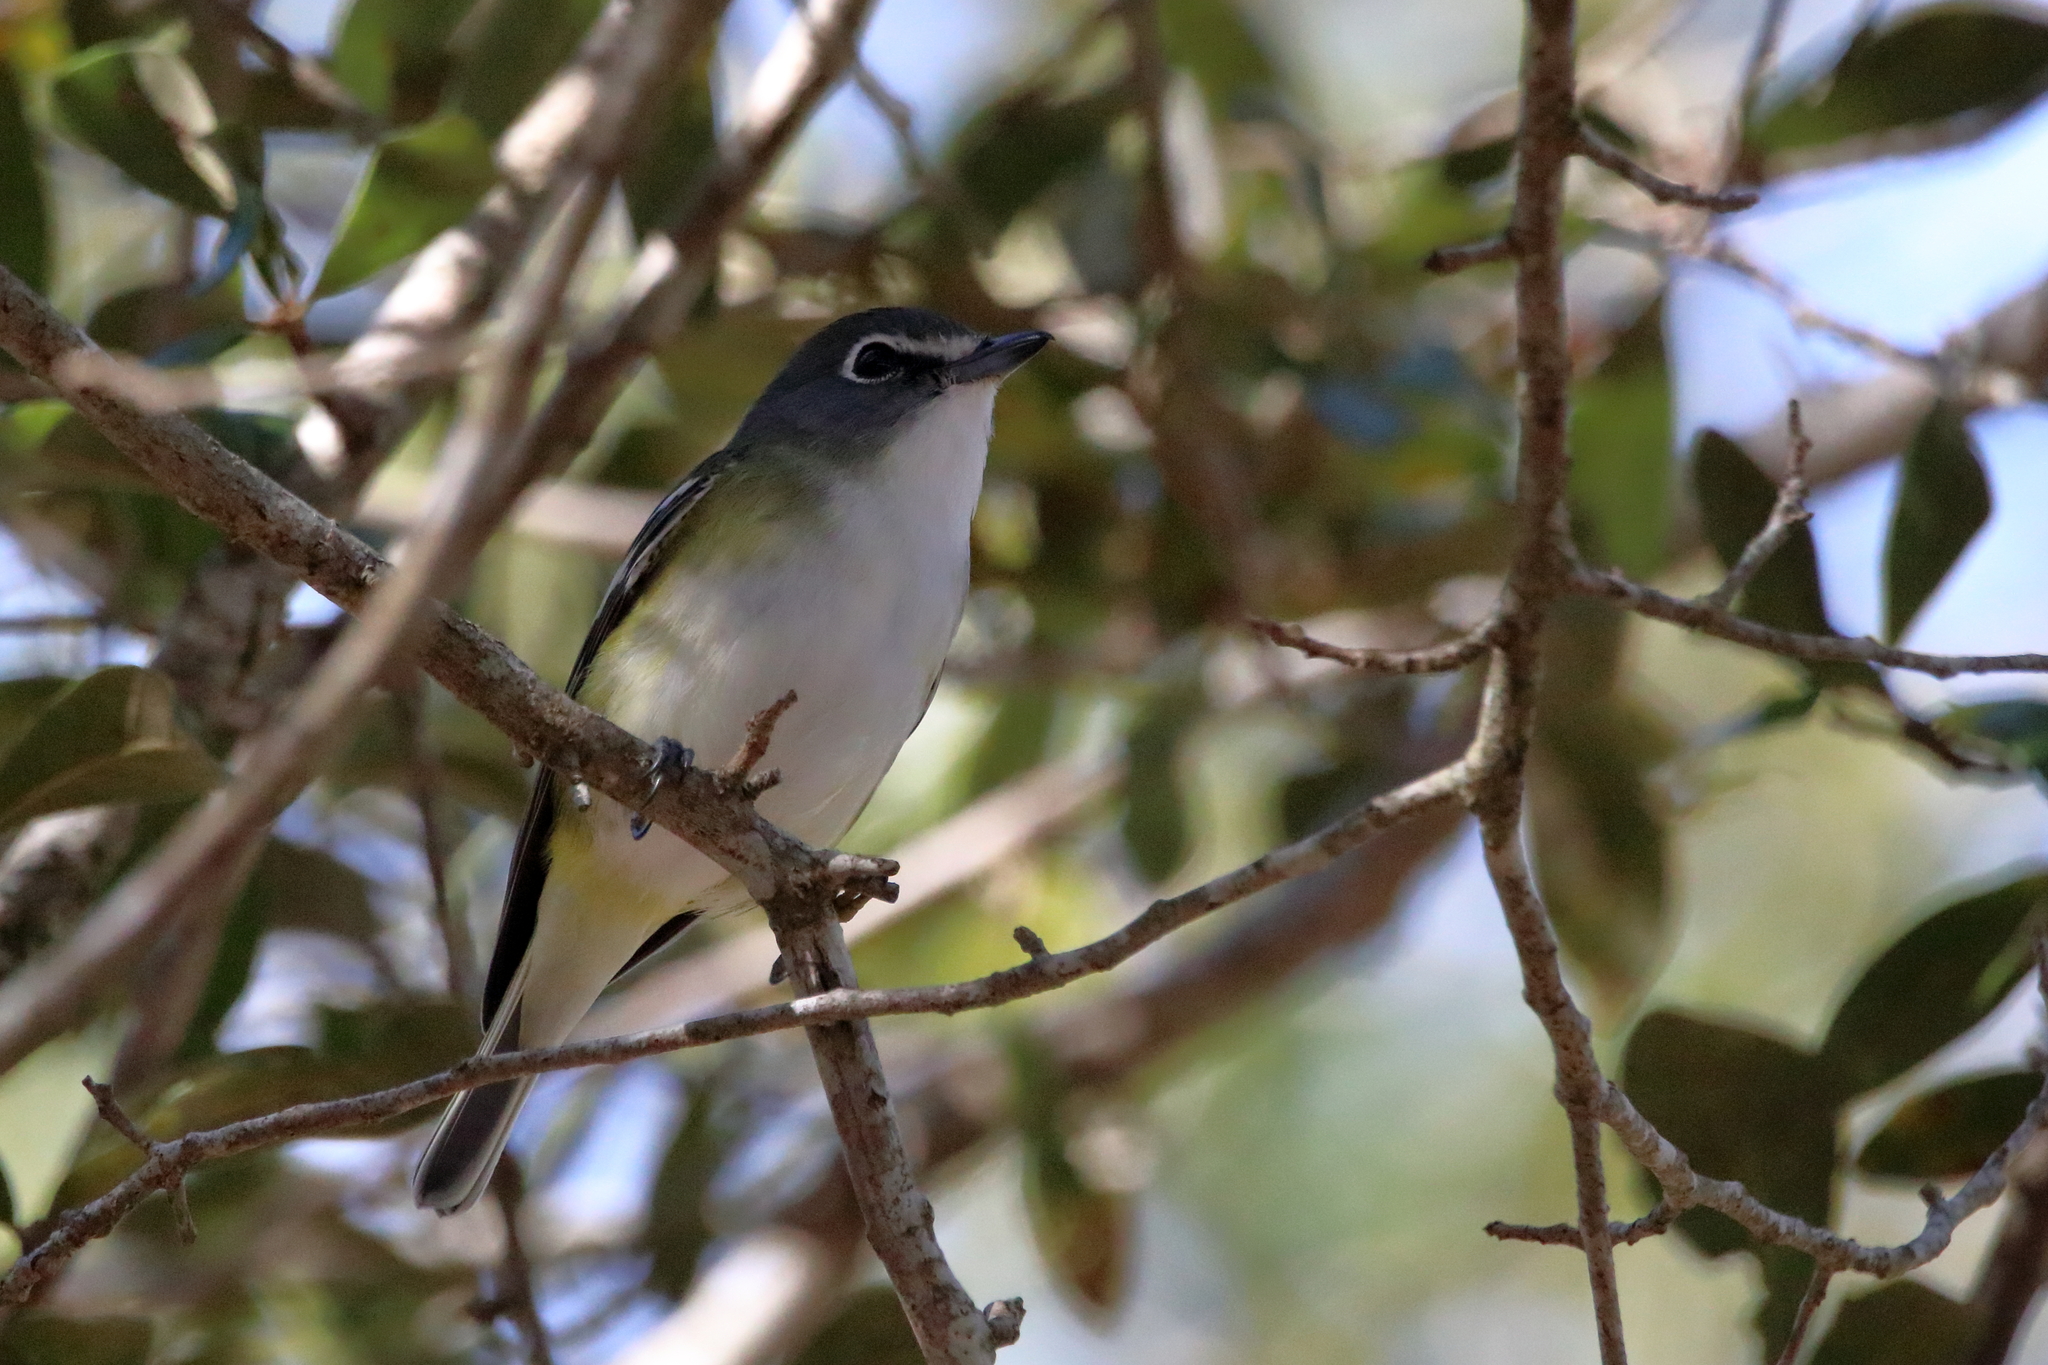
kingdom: Animalia
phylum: Chordata
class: Aves
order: Passeriformes
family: Vireonidae
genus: Vireo
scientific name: Vireo solitarius
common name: Blue-headed vireo
